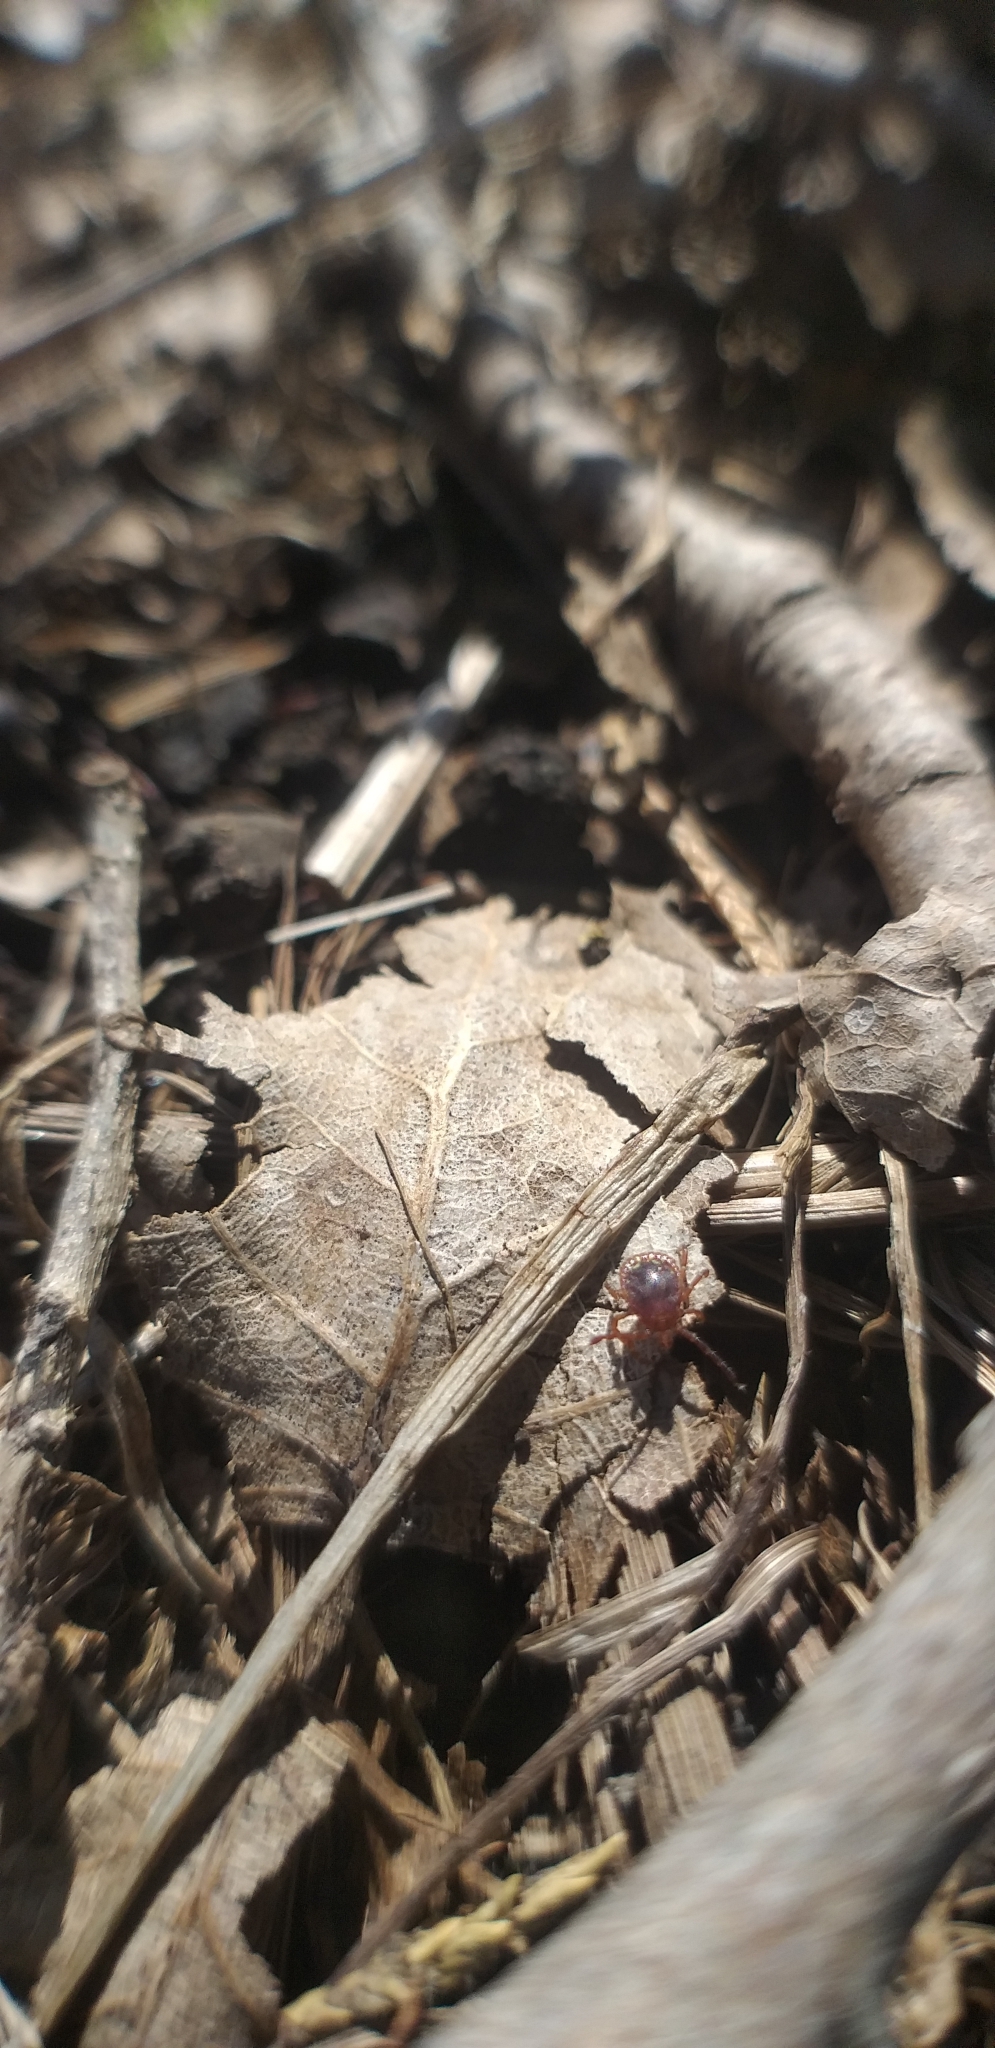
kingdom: Animalia
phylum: Arthropoda
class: Arachnida
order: Ixodida
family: Ixodidae
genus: Amblyomma
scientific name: Amblyomma americanum
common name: Lone star tick
